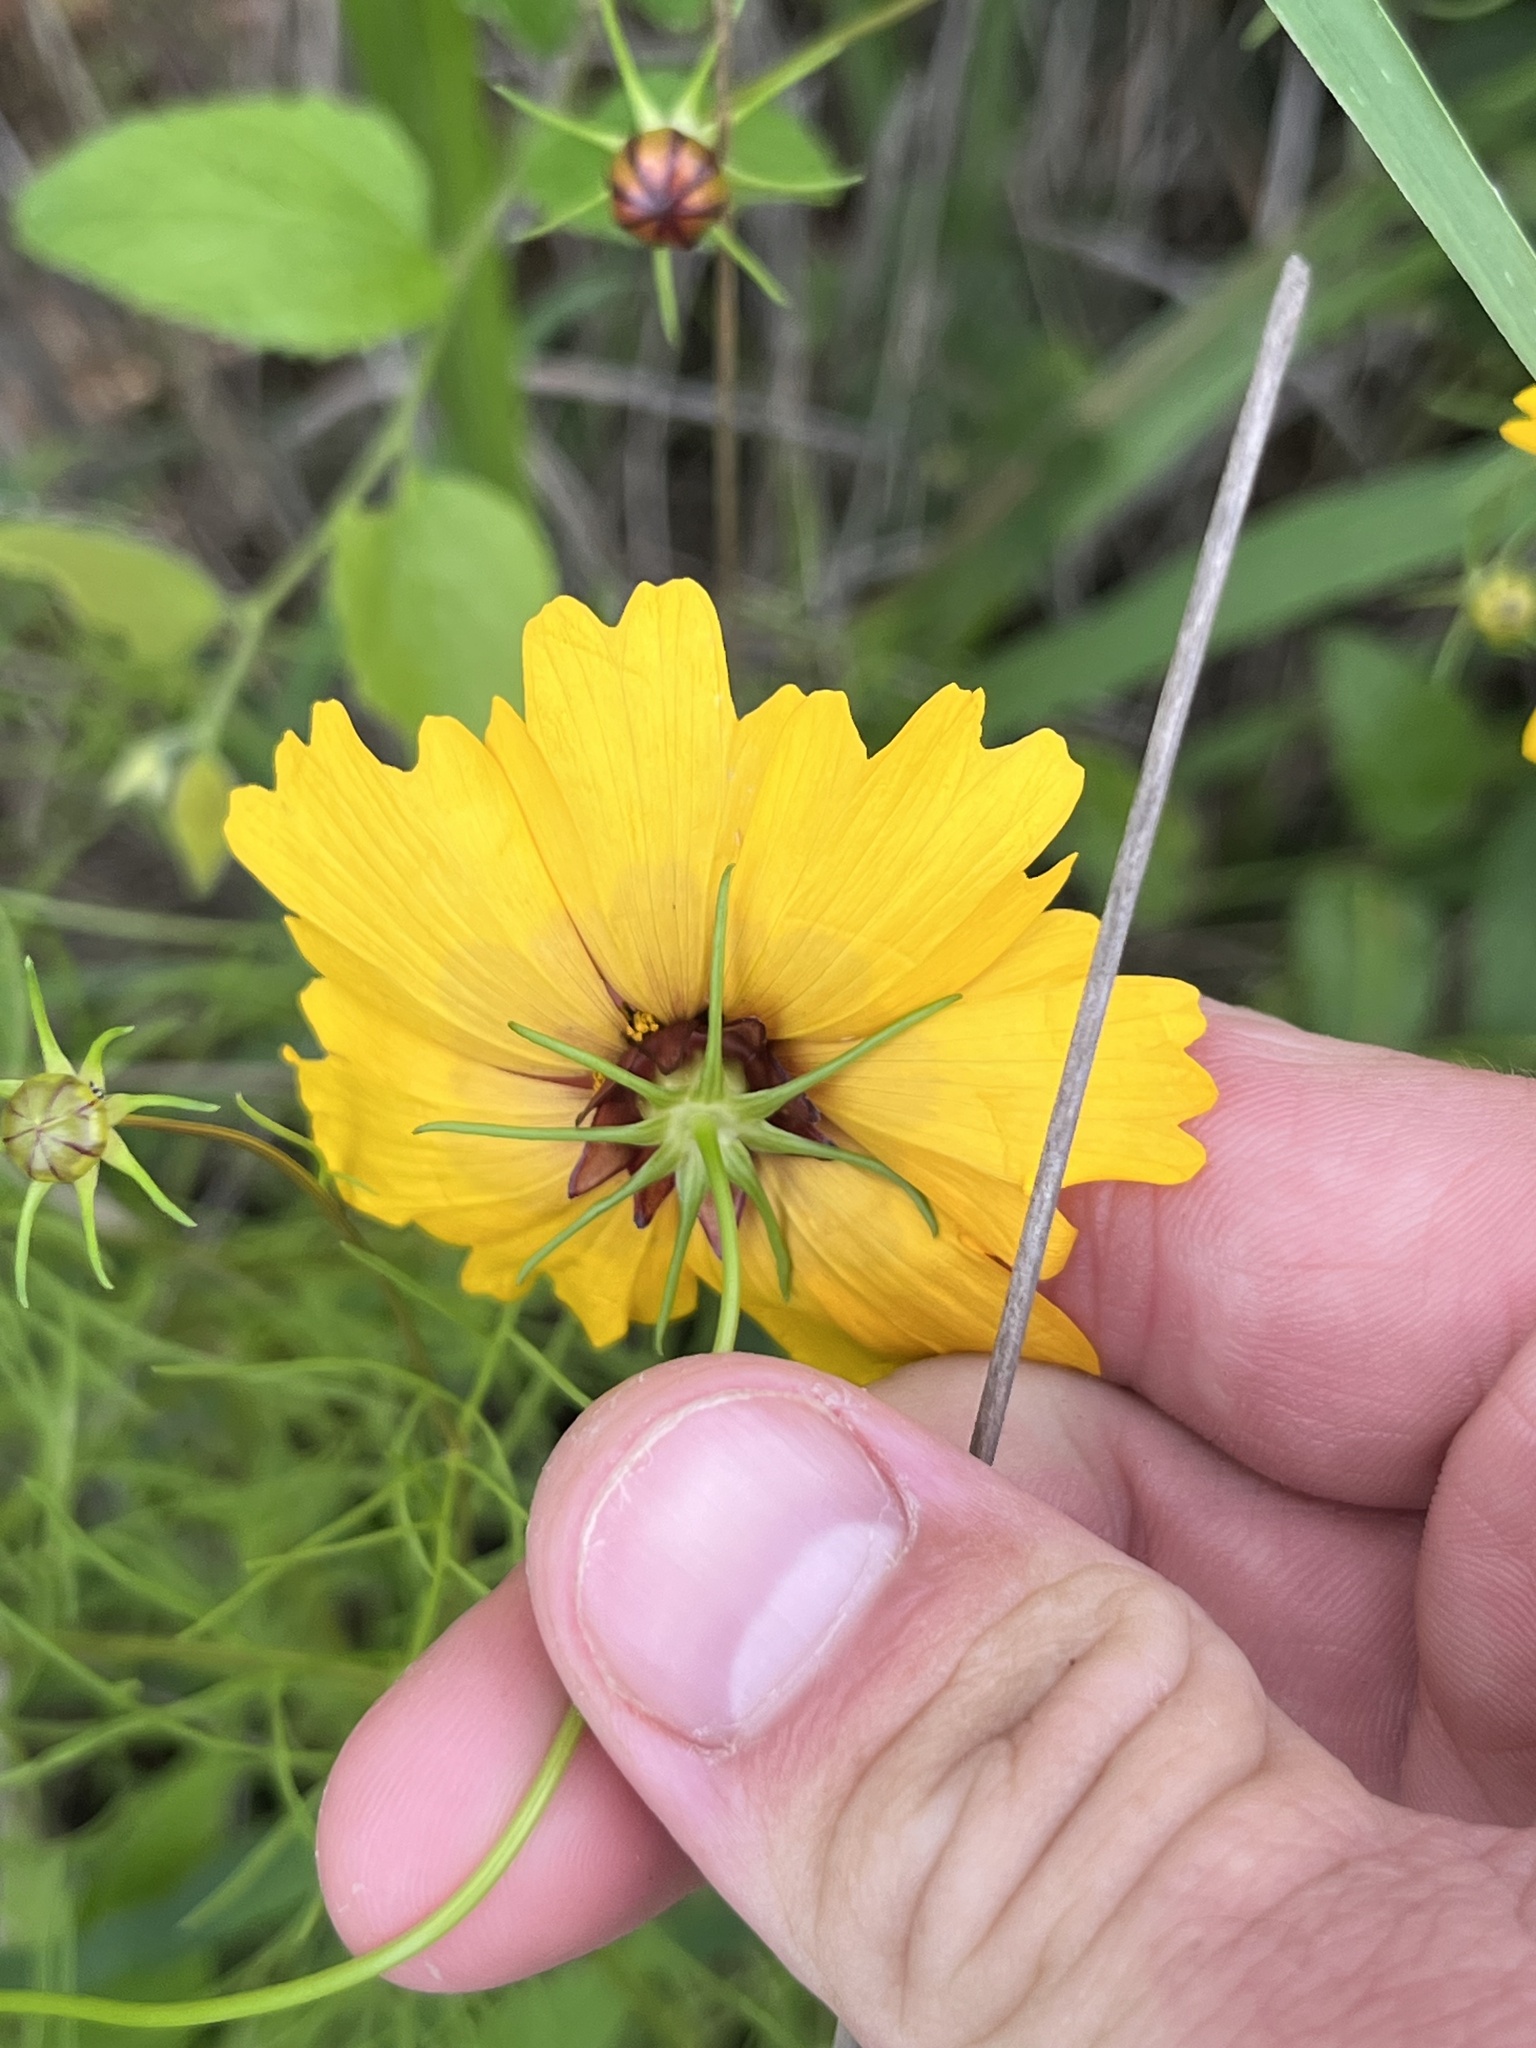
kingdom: Plantae
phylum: Tracheophyta
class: Magnoliopsida
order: Asterales
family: Asteraceae
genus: Coreopsis
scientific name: Coreopsis basalis
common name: Golden-mane coreopsis
